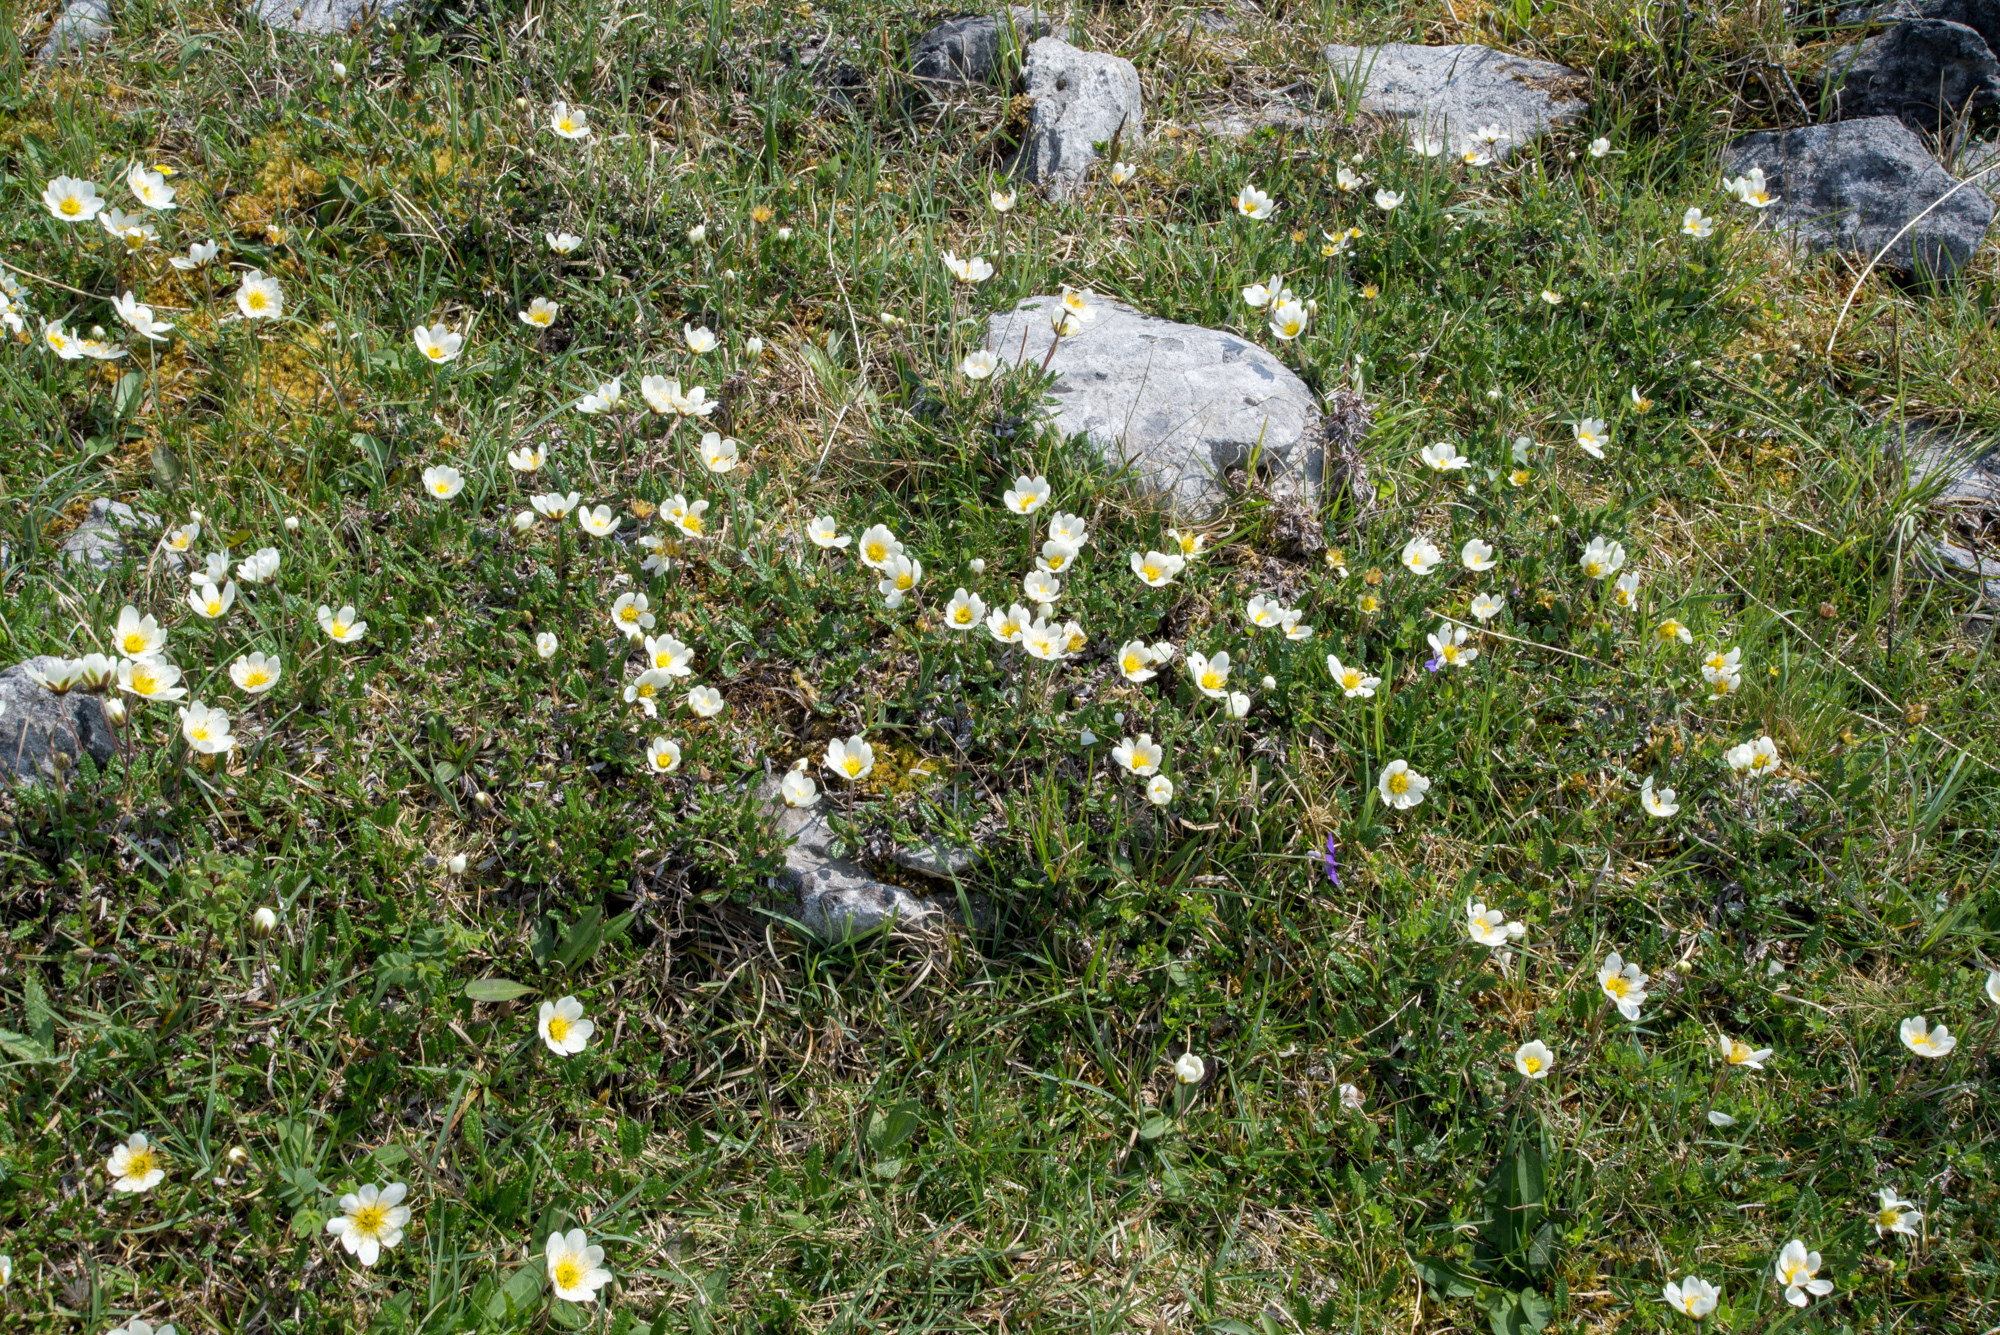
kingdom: Plantae
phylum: Tracheophyta
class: Magnoliopsida
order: Rosales
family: Rosaceae
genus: Dryas
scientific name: Dryas octopetala
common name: Eight-petal mountain-avens
